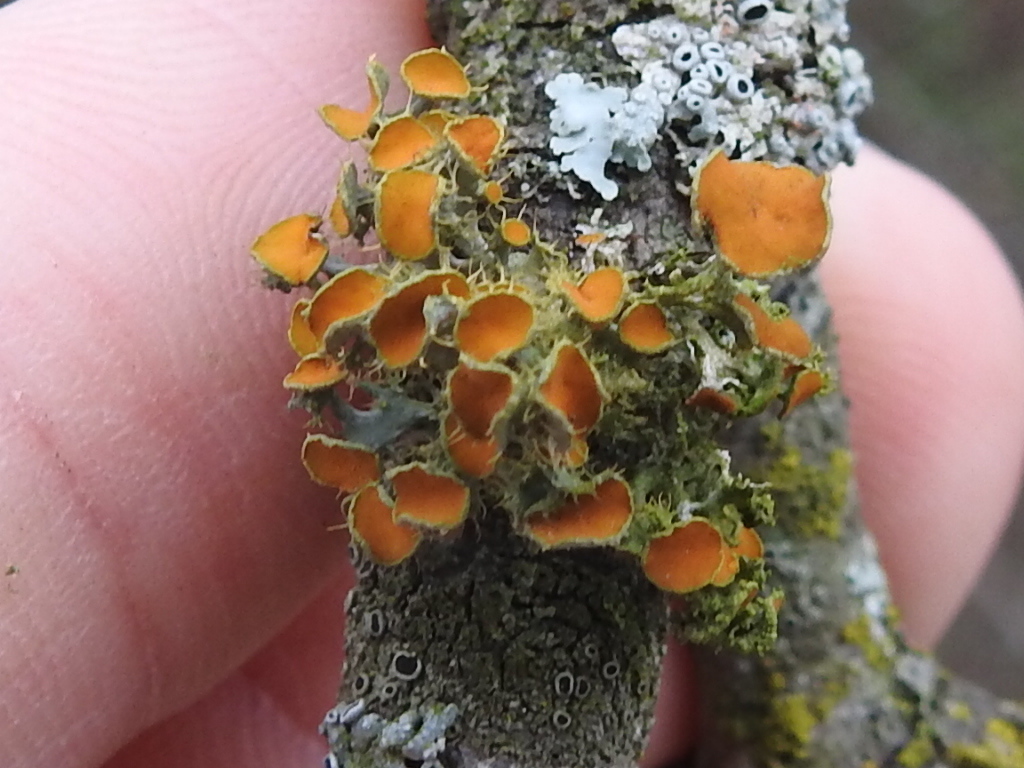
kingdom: Fungi
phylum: Ascomycota
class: Lecanoromycetes
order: Teloschistales
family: Teloschistaceae
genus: Niorma
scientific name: Niorma chrysophthalma
